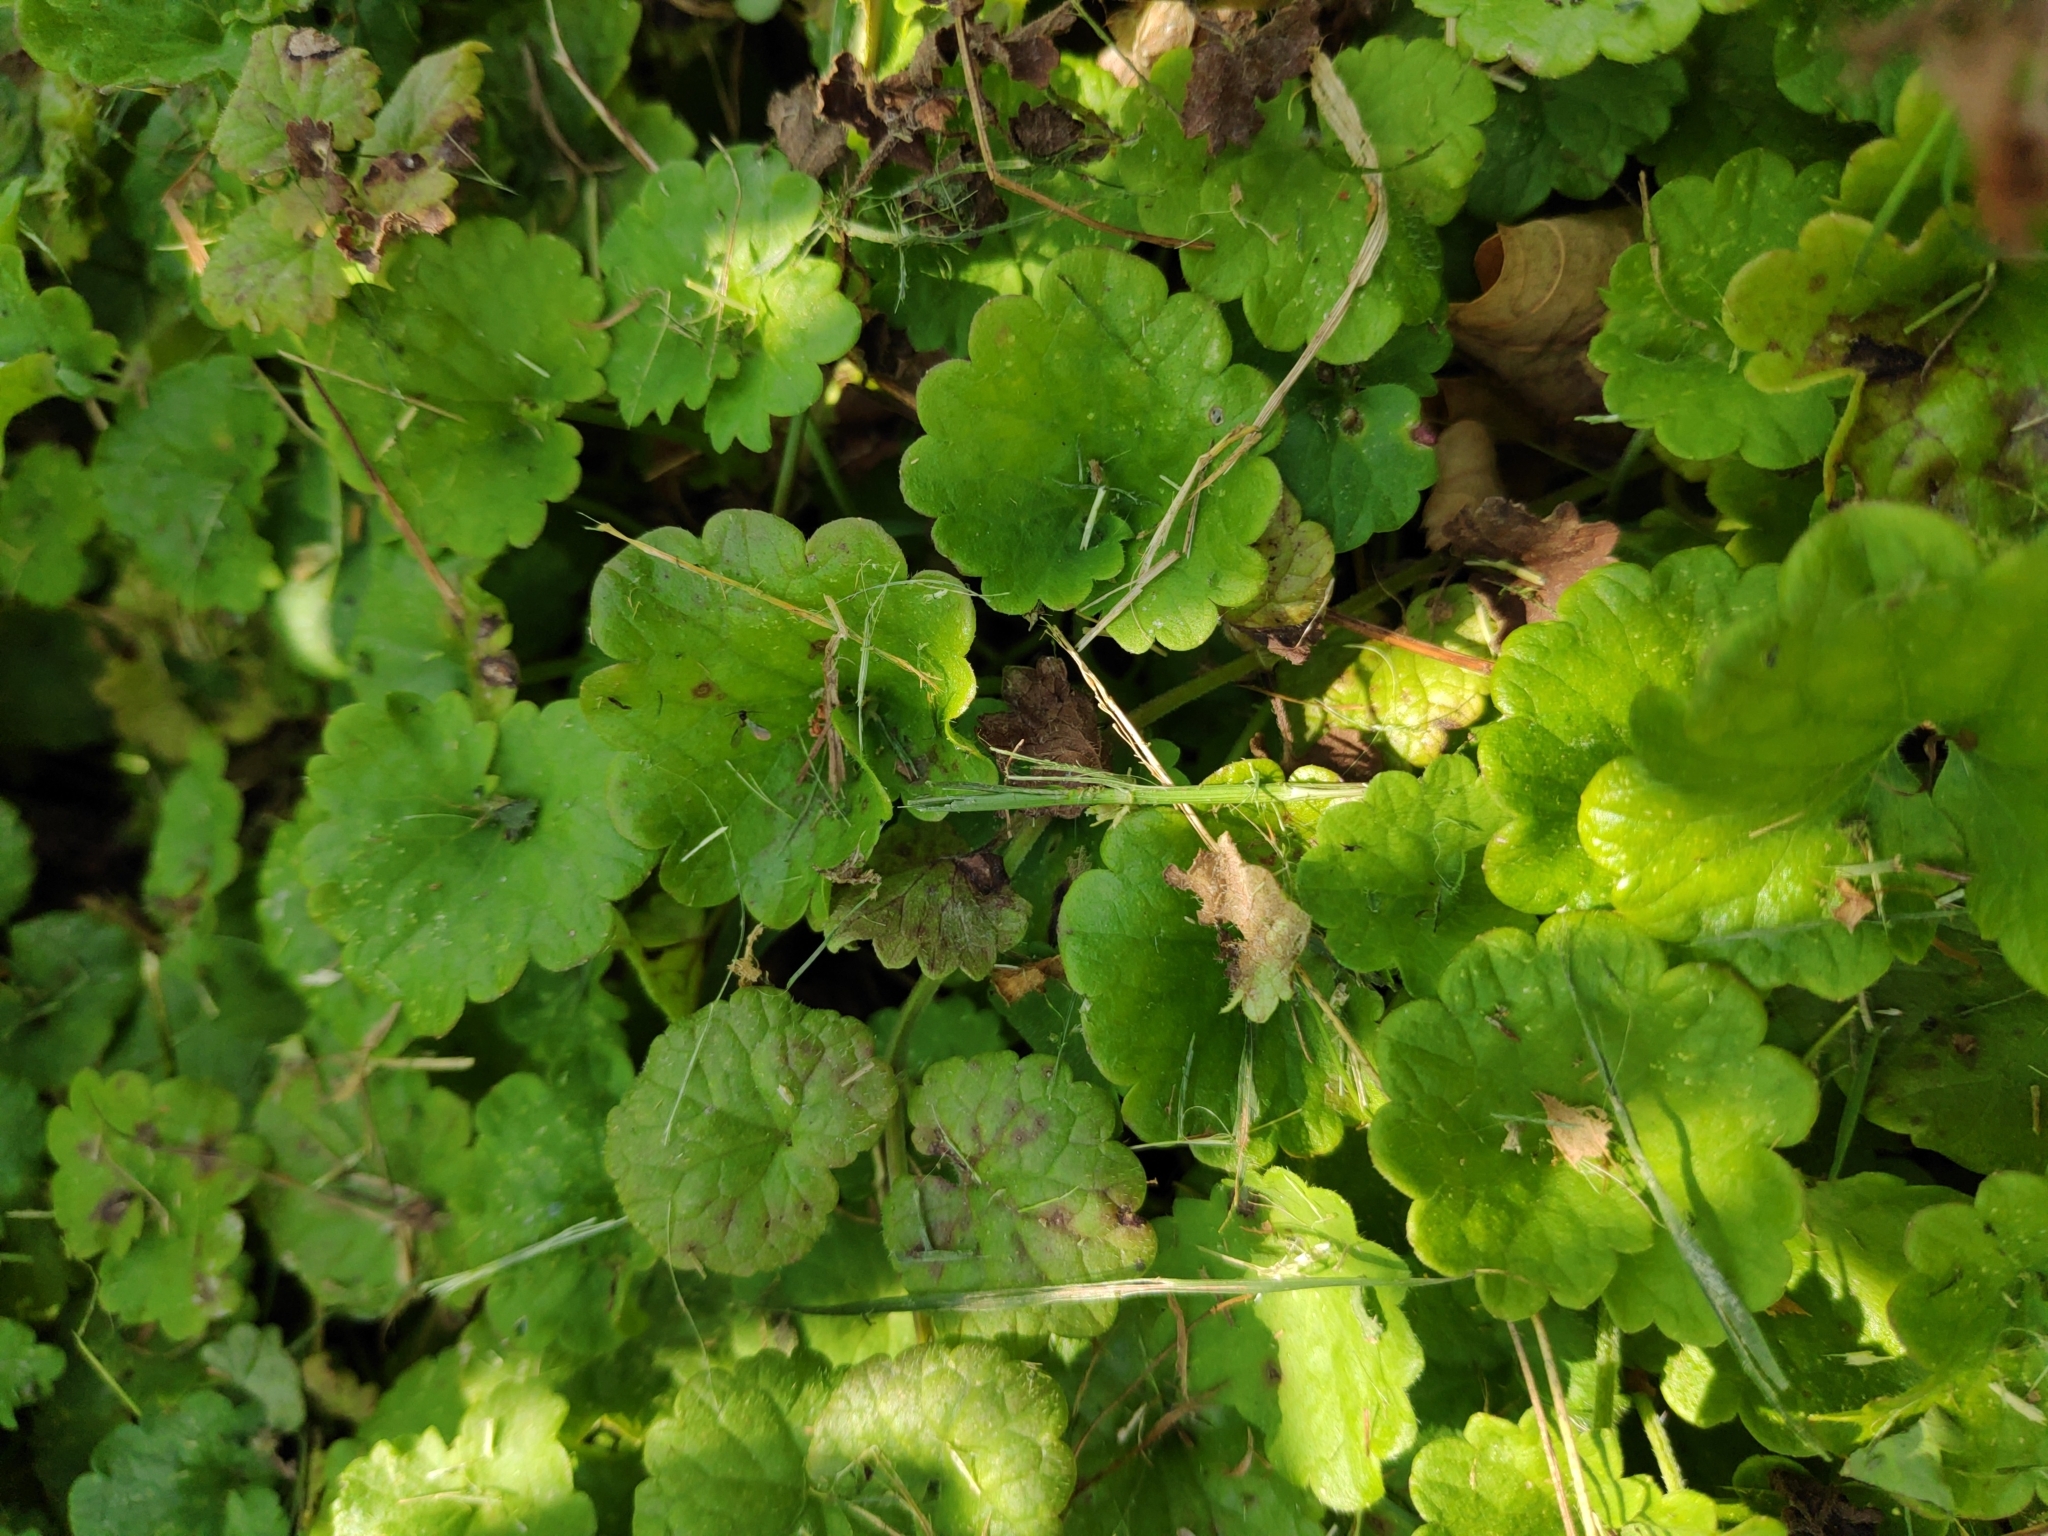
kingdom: Plantae
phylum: Tracheophyta
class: Magnoliopsida
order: Lamiales
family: Lamiaceae
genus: Glechoma
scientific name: Glechoma hederacea
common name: Ground ivy
